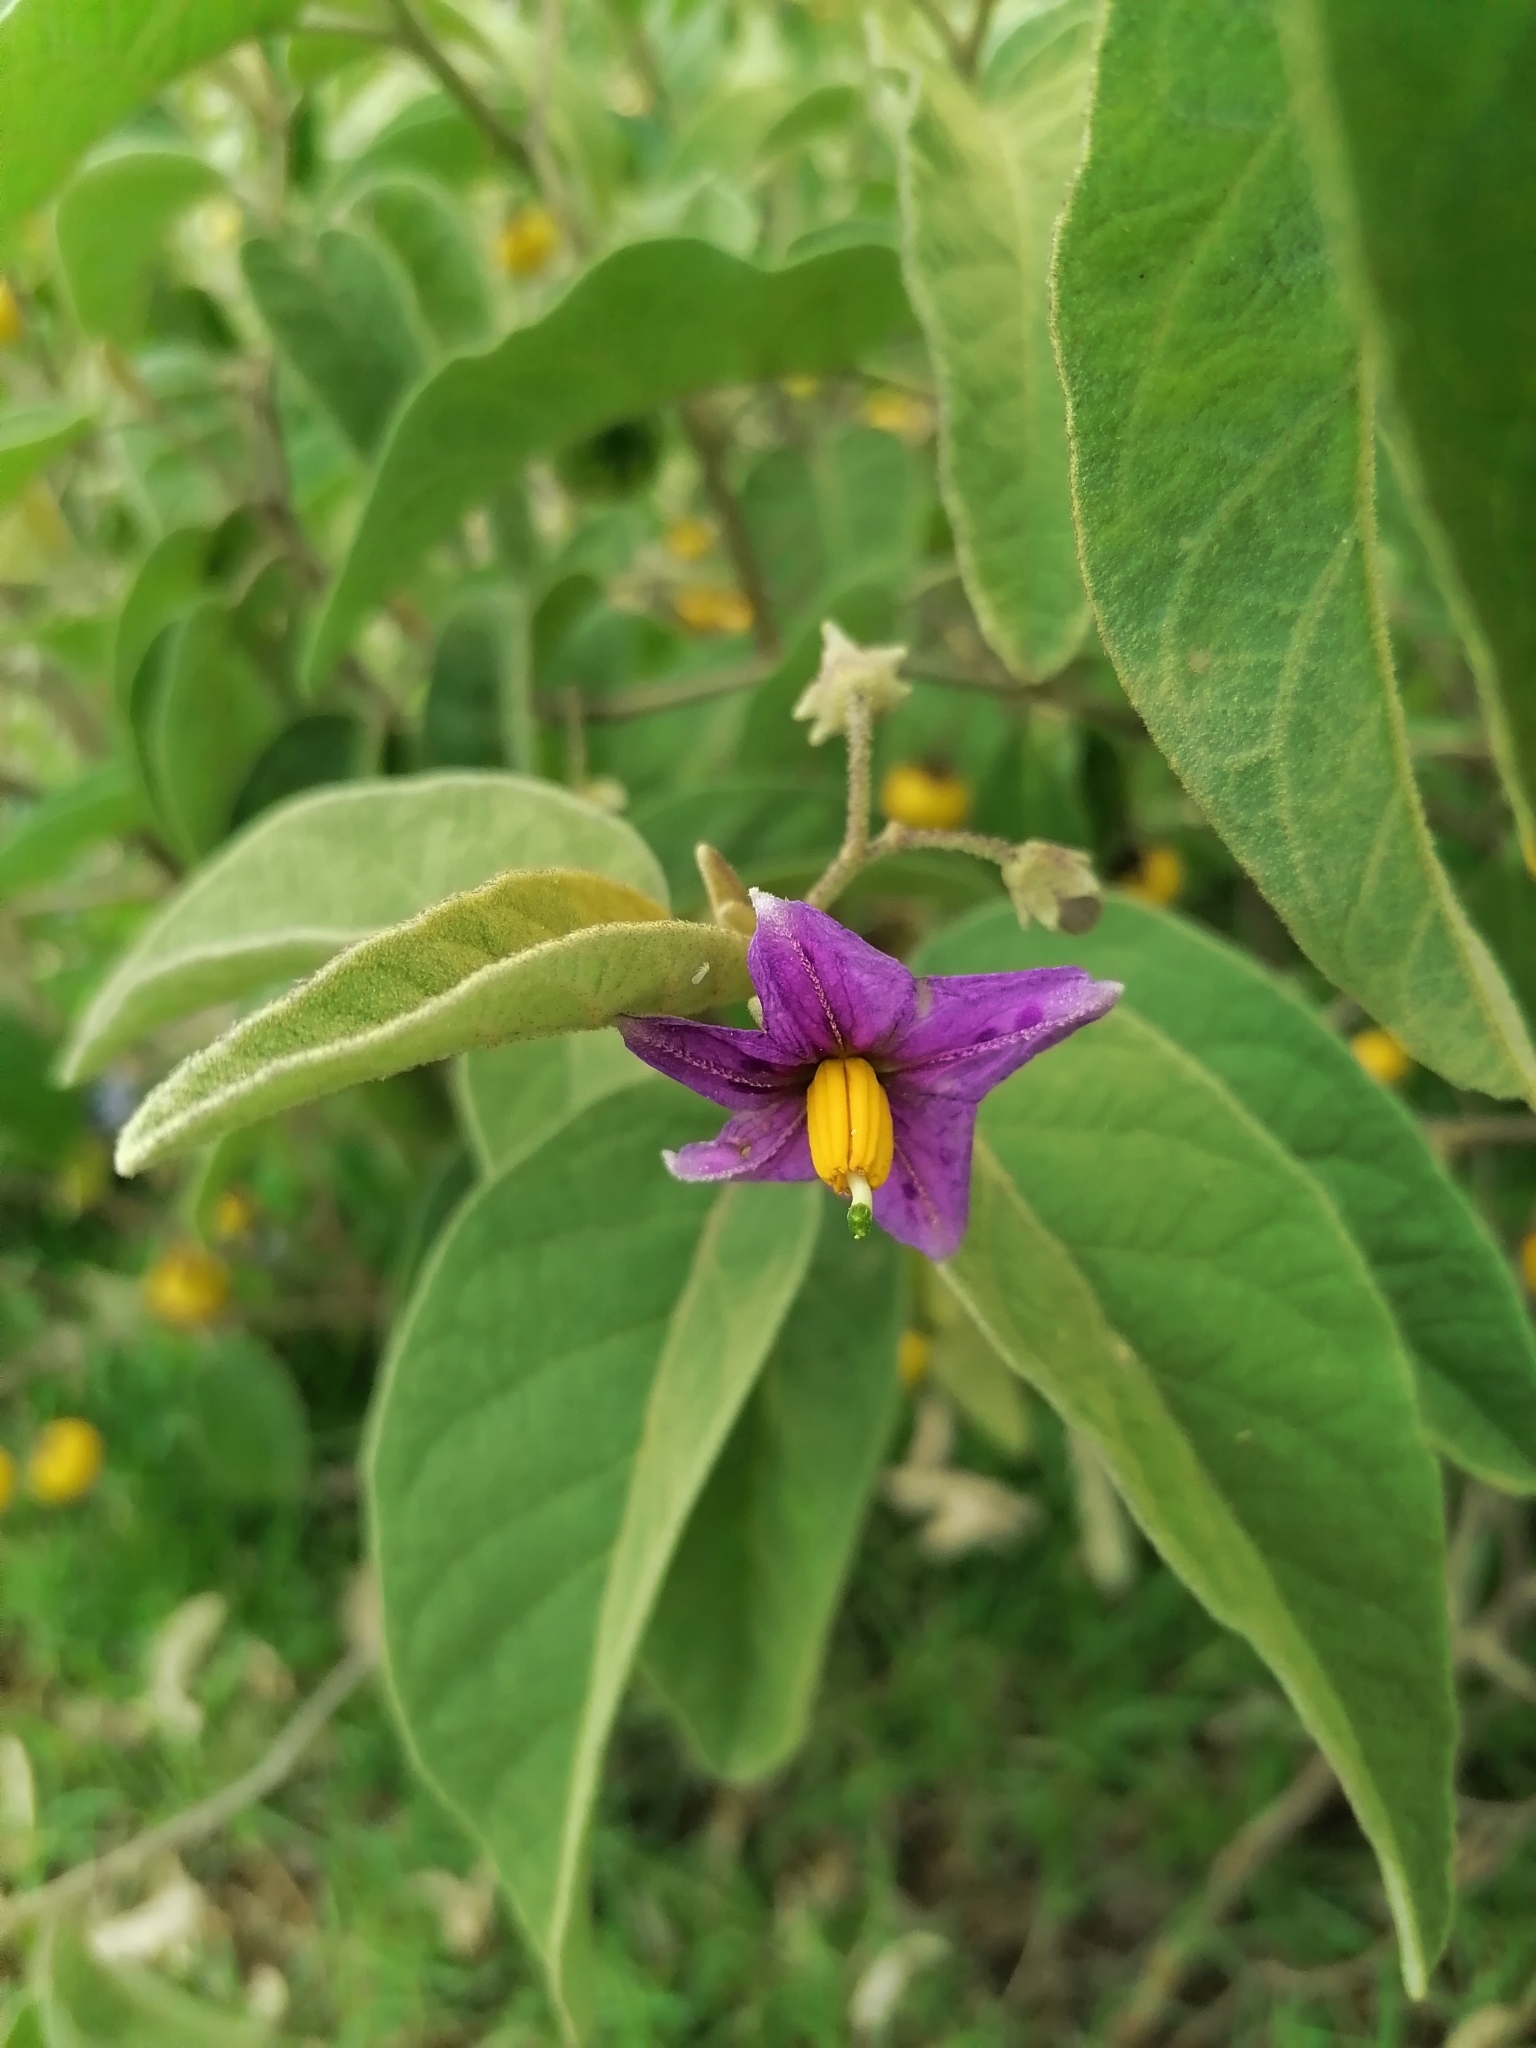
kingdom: Plantae
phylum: Tracheophyta
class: Magnoliopsida
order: Solanales
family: Solanaceae
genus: Solanum
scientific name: Solanum campylacanthum
